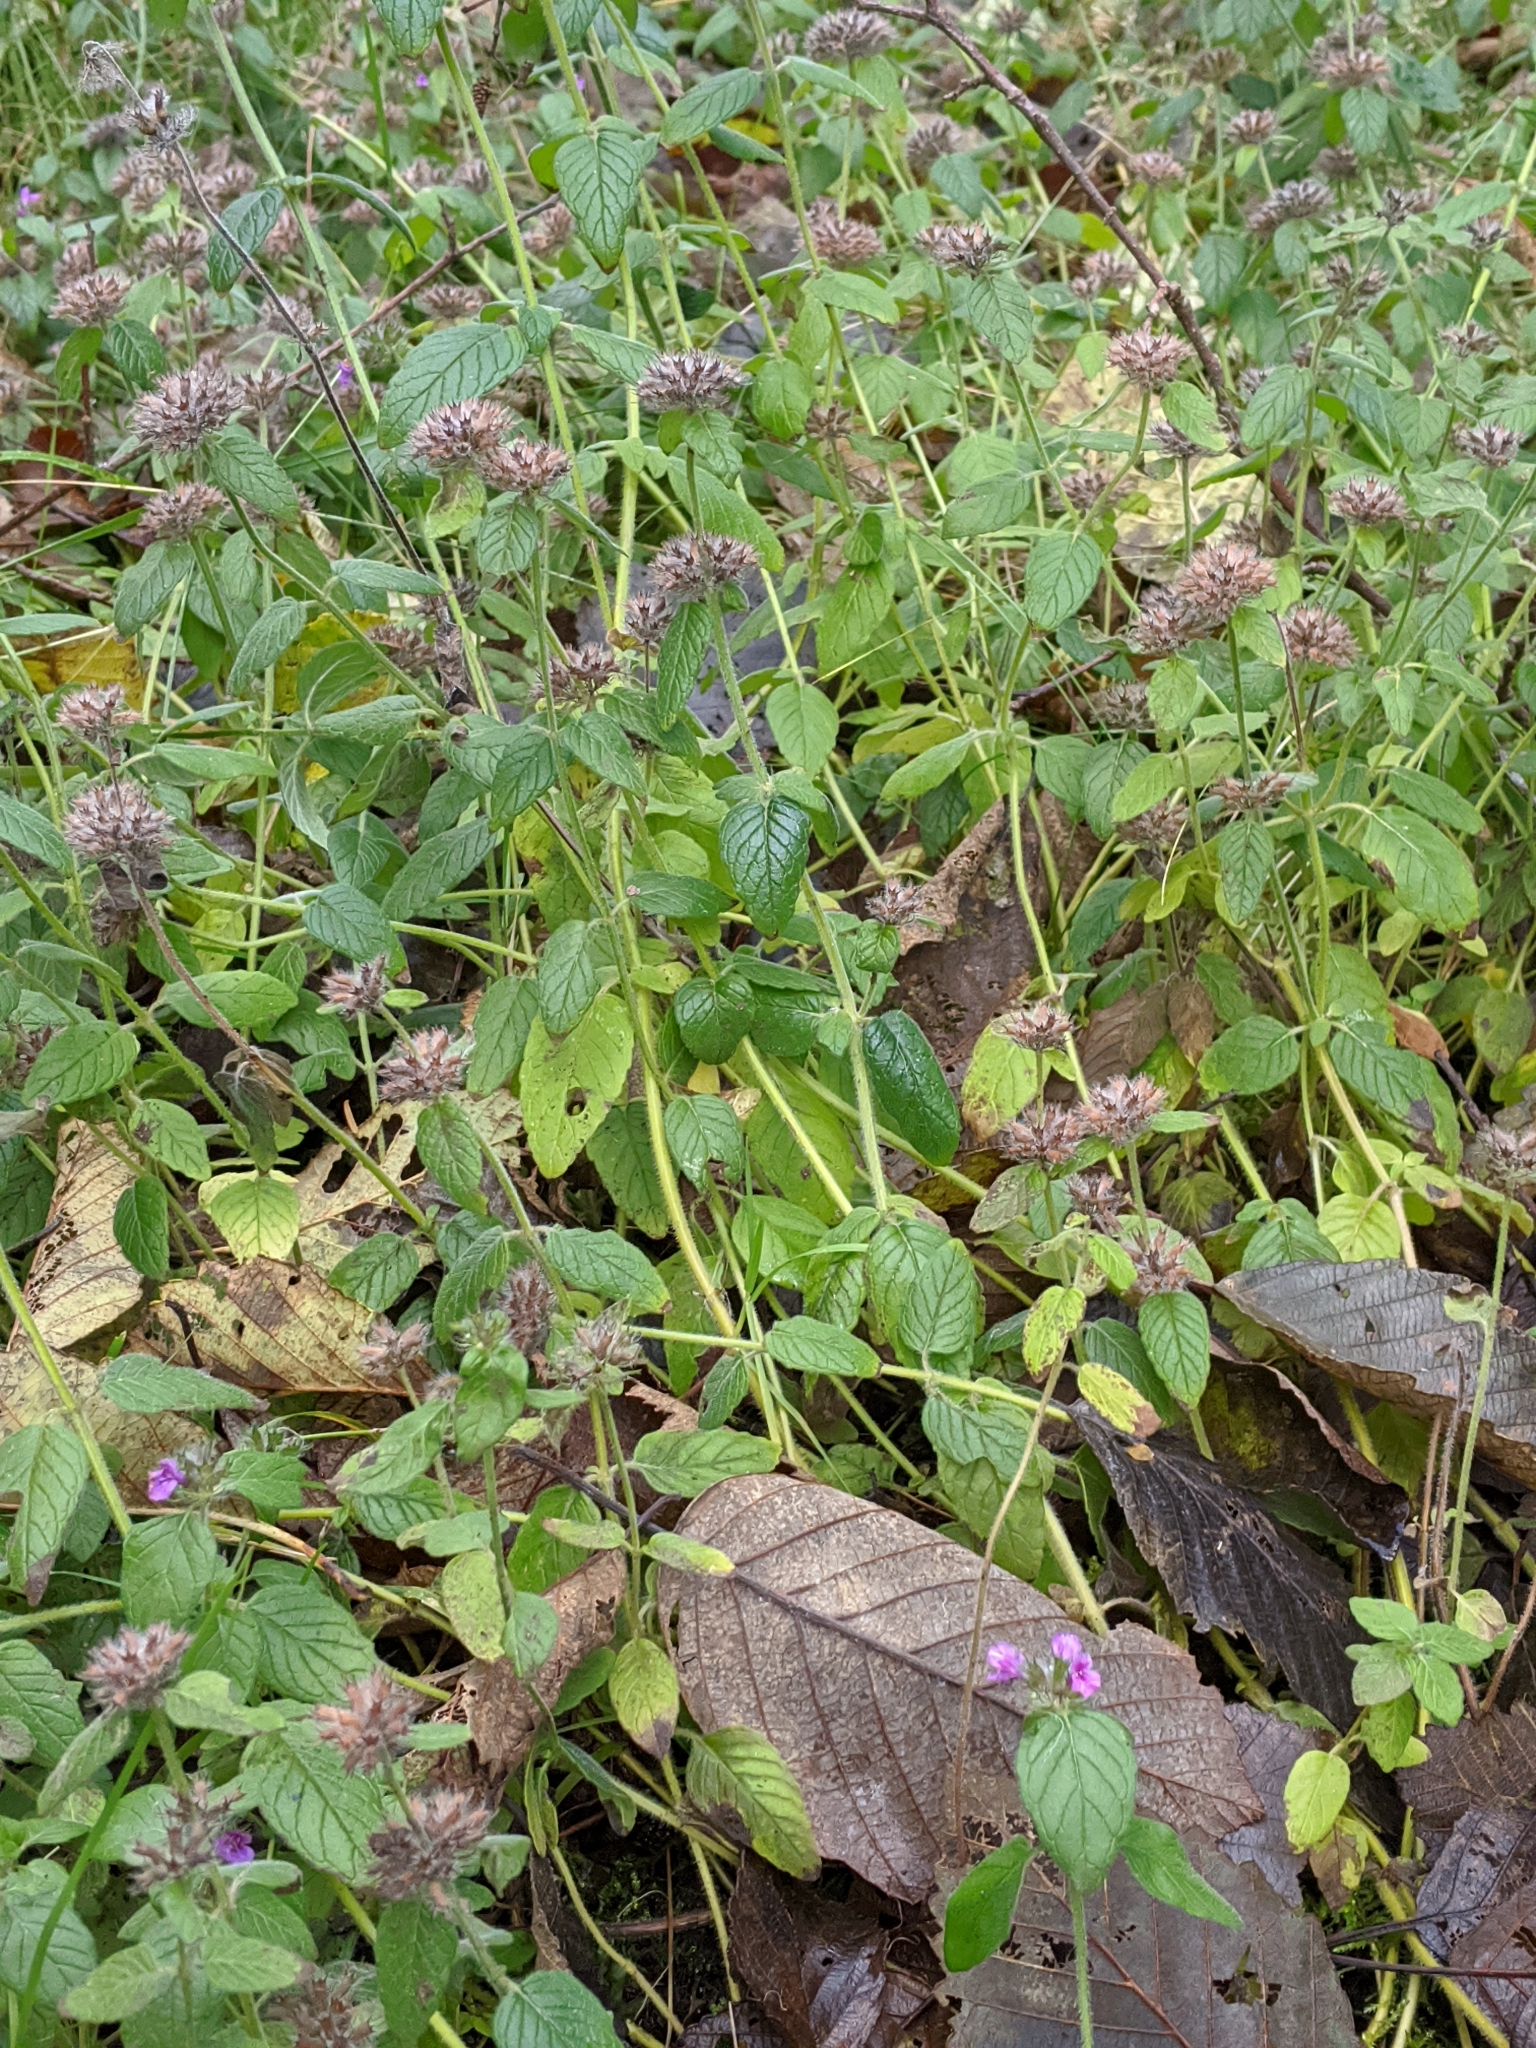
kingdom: Plantae
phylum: Tracheophyta
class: Magnoliopsida
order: Lamiales
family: Lamiaceae
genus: Clinopodium
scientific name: Clinopodium vulgare
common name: Wild basil
